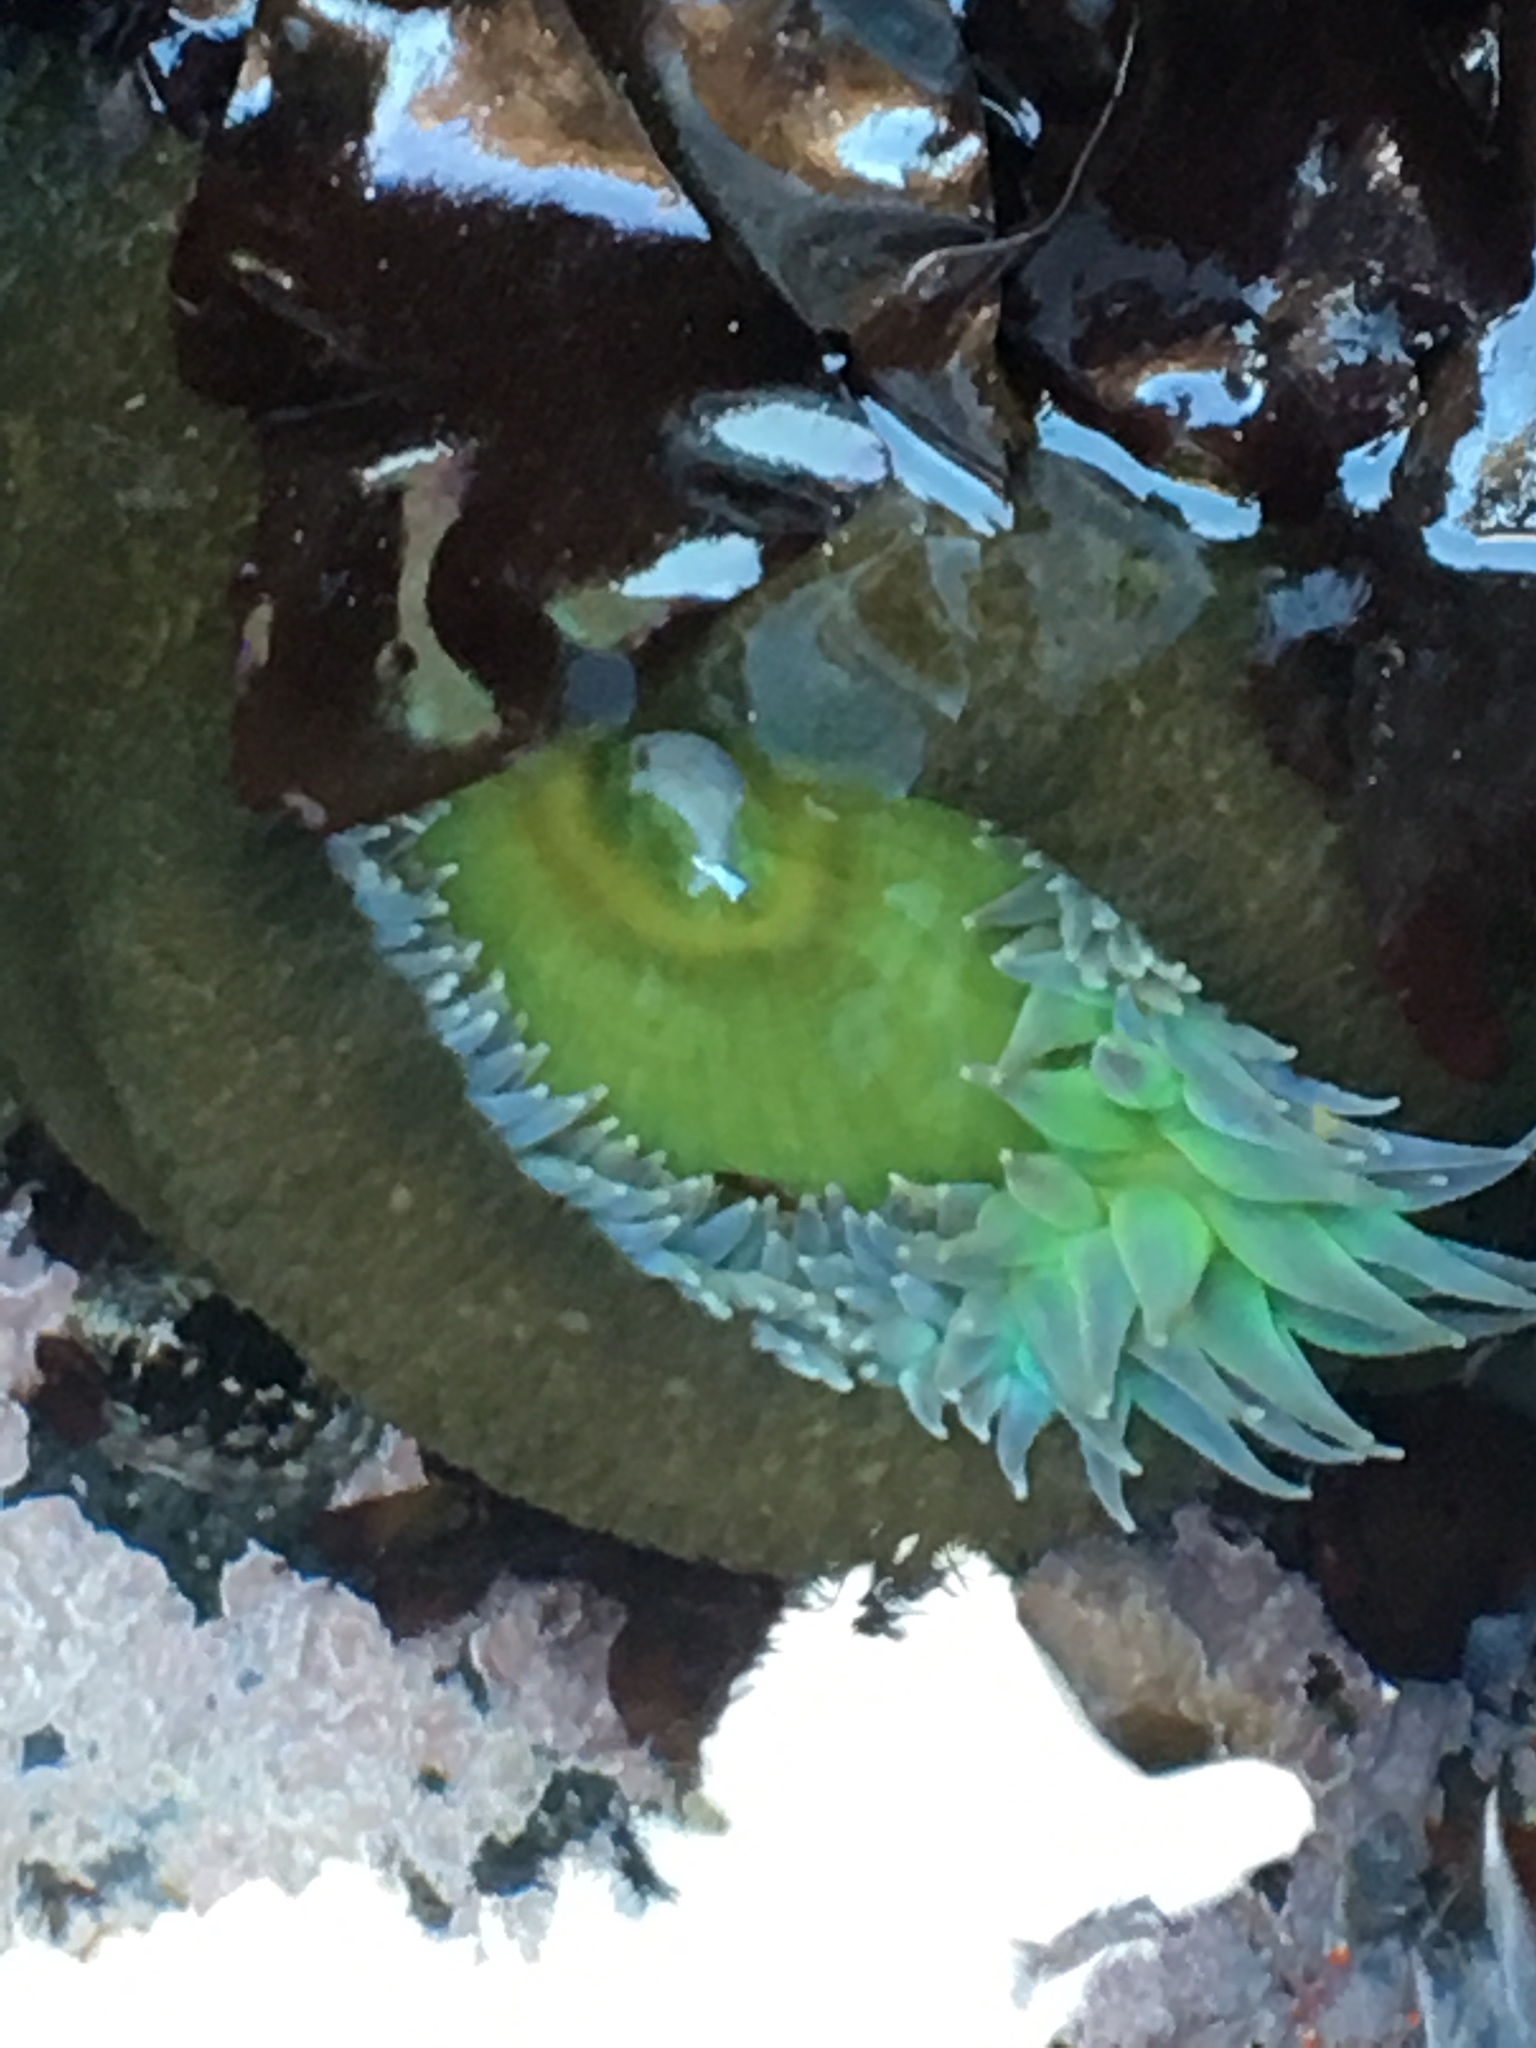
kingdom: Animalia
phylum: Cnidaria
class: Anthozoa
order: Actiniaria
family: Actiniidae
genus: Anthopleura
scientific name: Anthopleura xanthogrammica
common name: Giant green anemone
